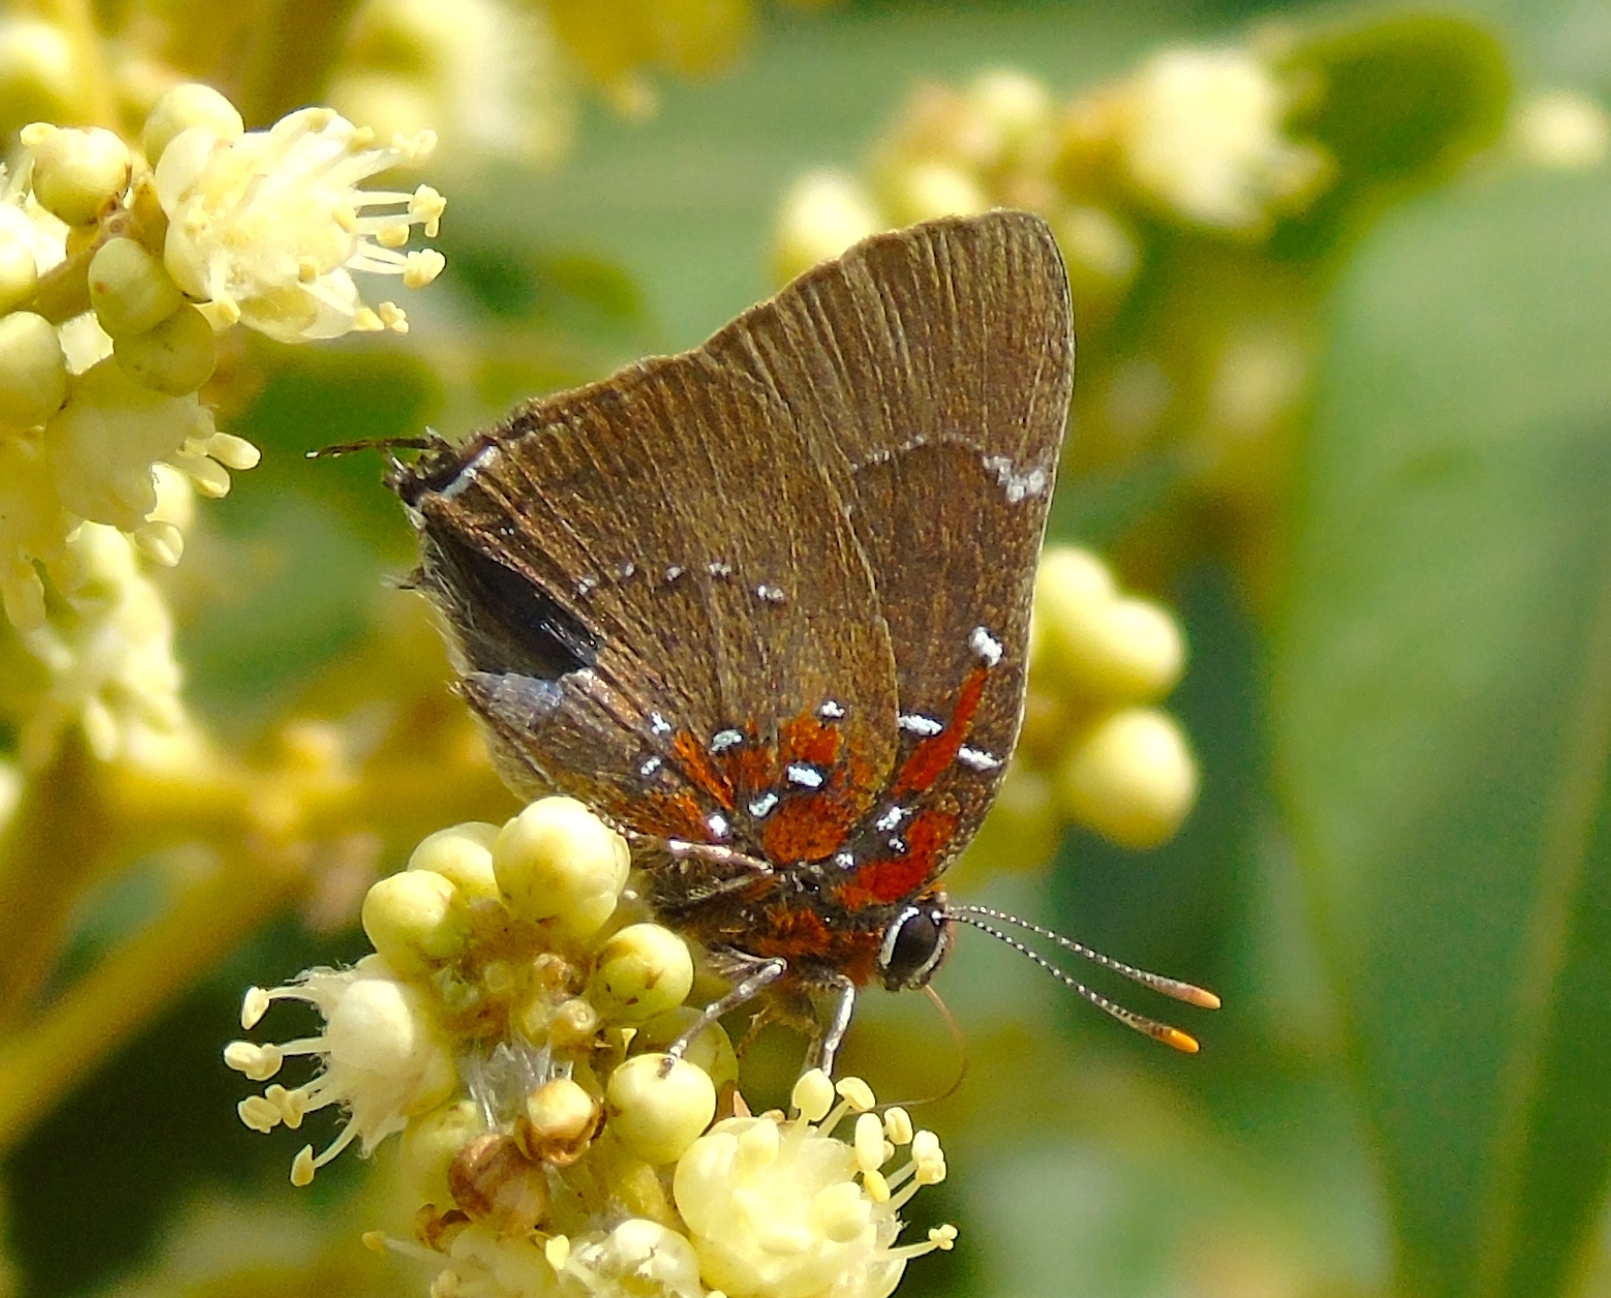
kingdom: Animalia
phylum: Arthropoda
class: Insecta
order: Lepidoptera
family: Lycaenidae
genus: Atlides
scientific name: Atlides Brangas neora
